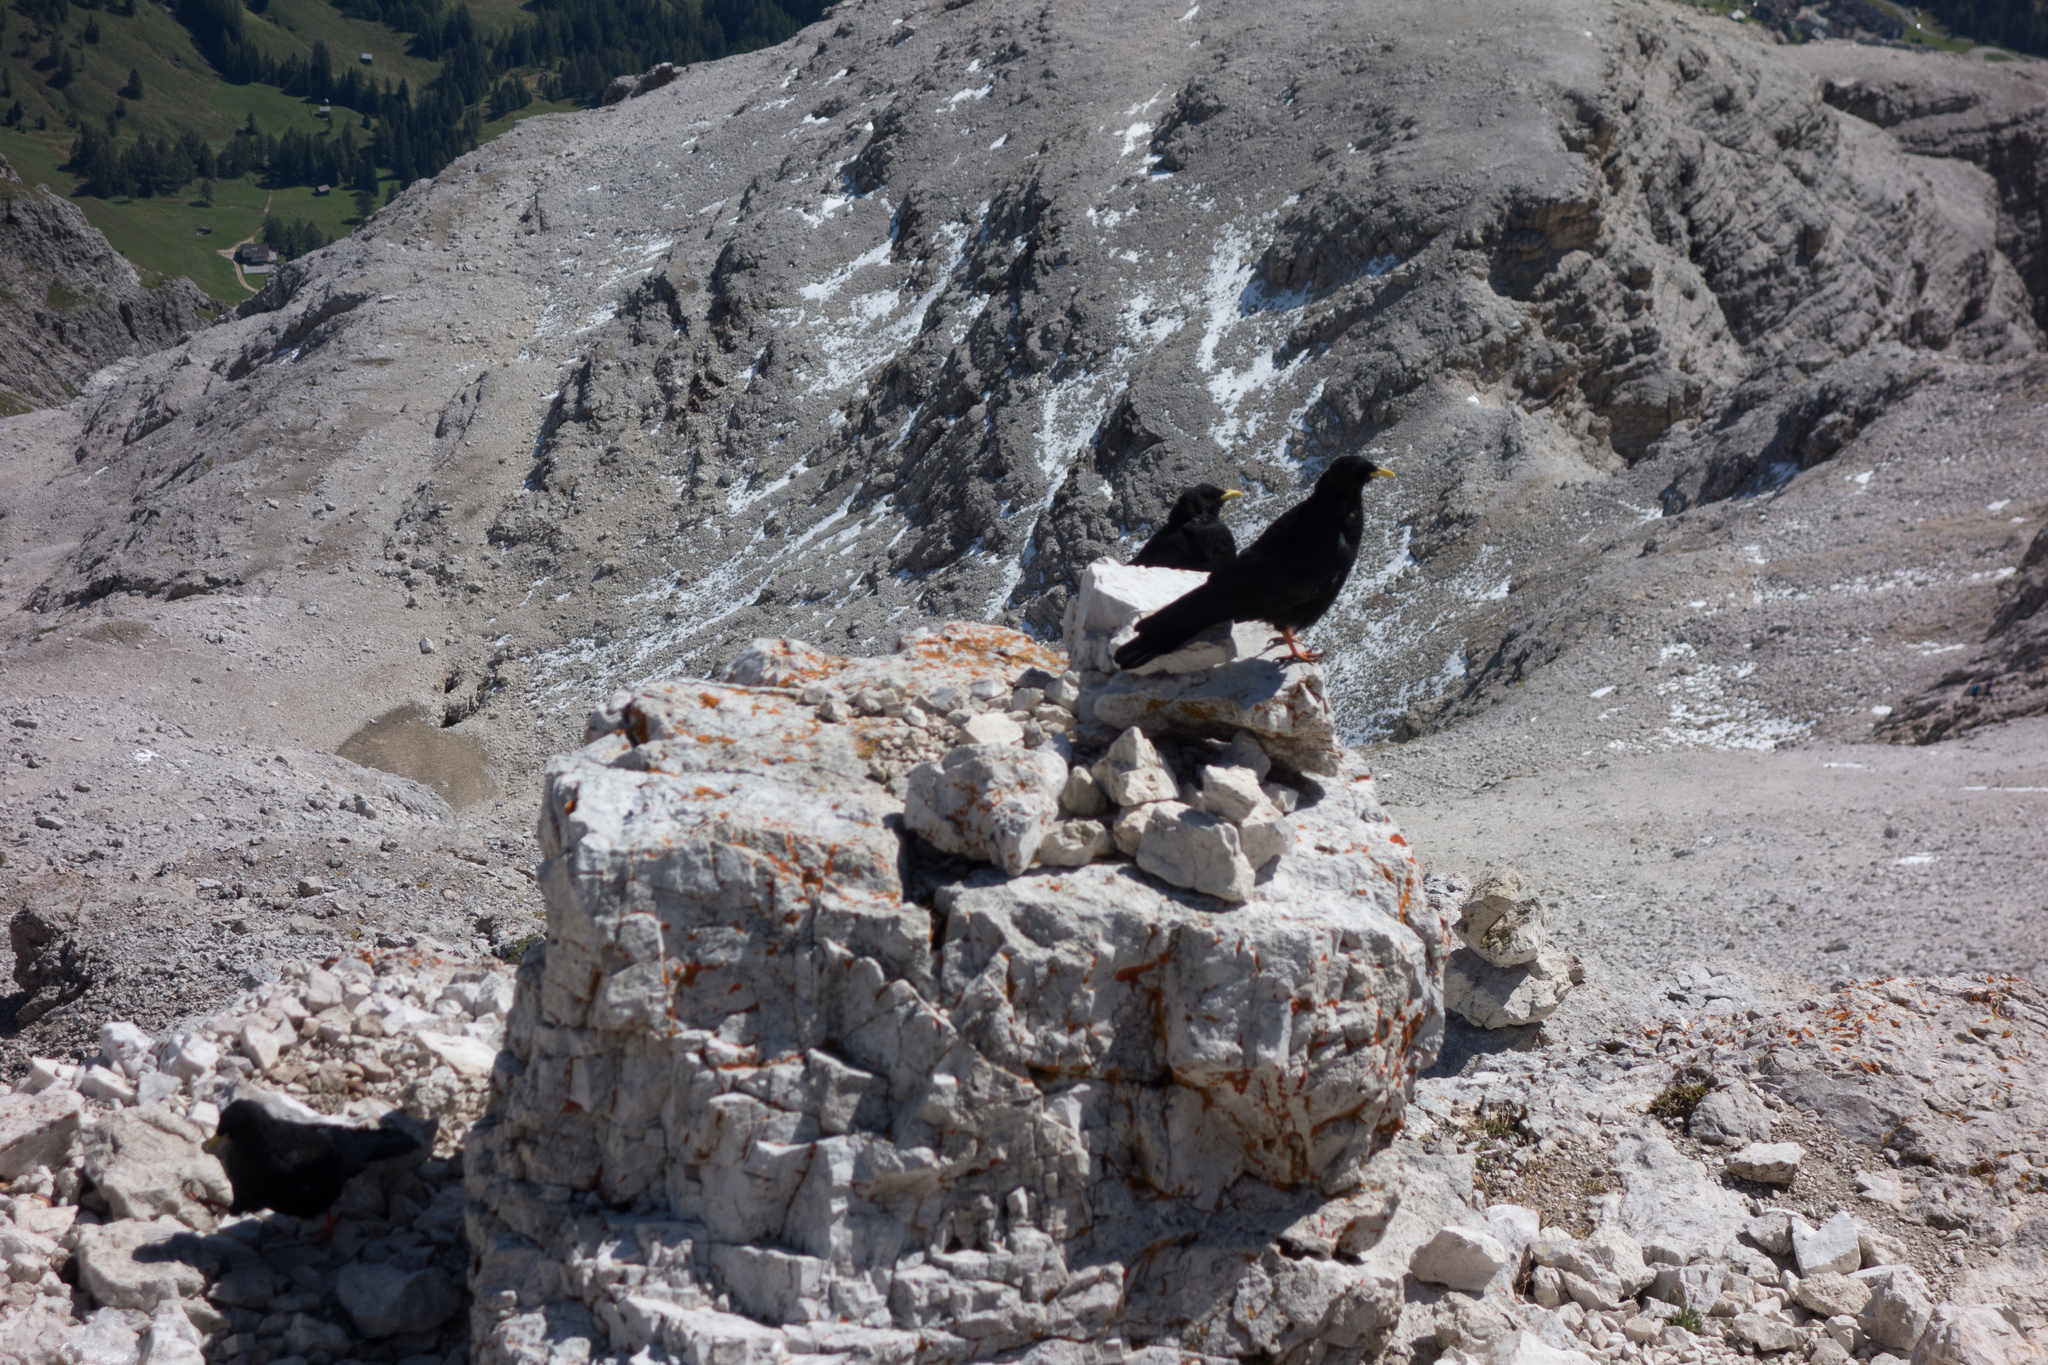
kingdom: Animalia
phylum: Chordata
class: Aves
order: Passeriformes
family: Corvidae
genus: Pyrrhocorax
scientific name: Pyrrhocorax graculus
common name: Alpine chough
